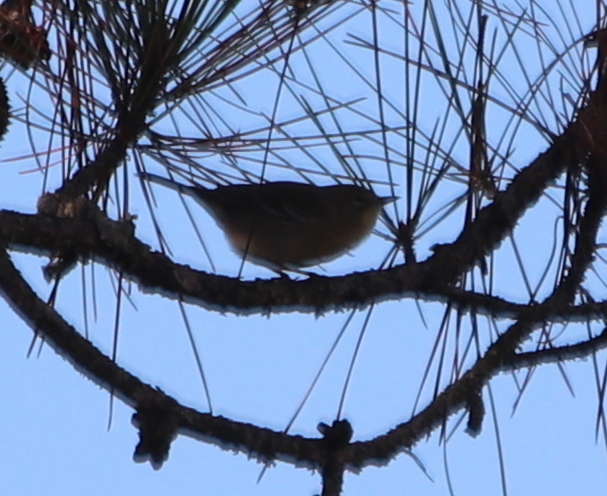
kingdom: Animalia
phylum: Chordata
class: Aves
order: Passeriformes
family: Parulidae
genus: Setophaga
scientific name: Setophaga pinus
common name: Pine warbler
